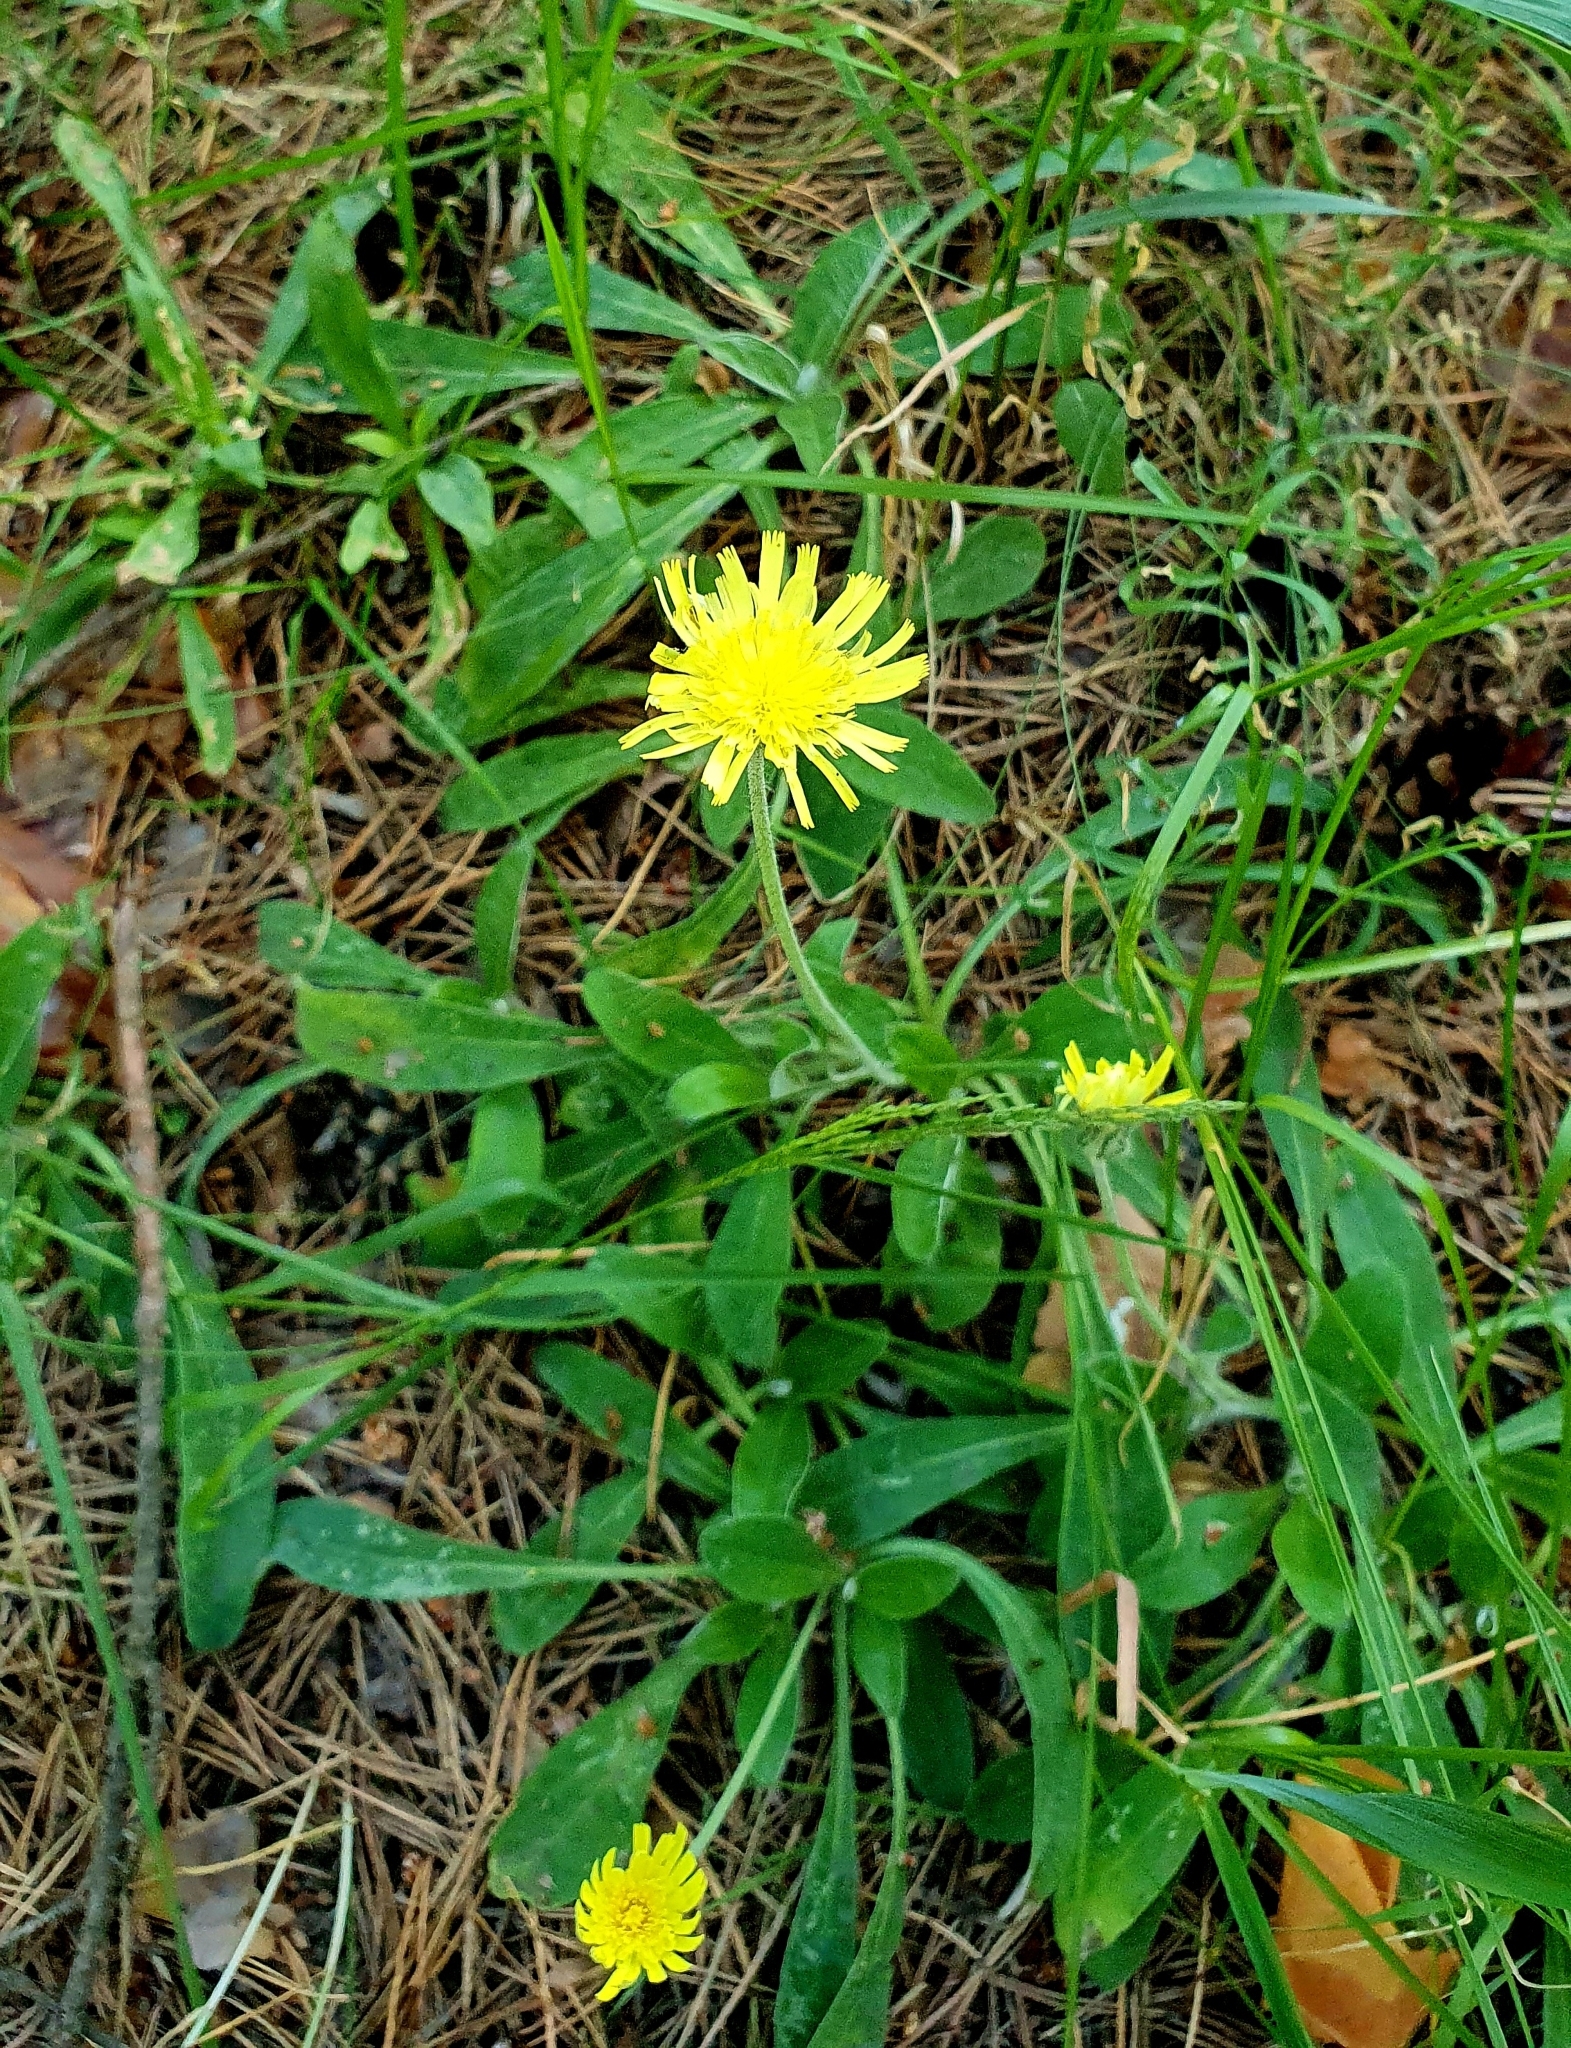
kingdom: Plantae
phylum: Tracheophyta
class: Magnoliopsida
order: Asterales
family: Asteraceae
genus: Pilosella
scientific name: Pilosella officinarum
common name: Mouse-ear hawkweed
